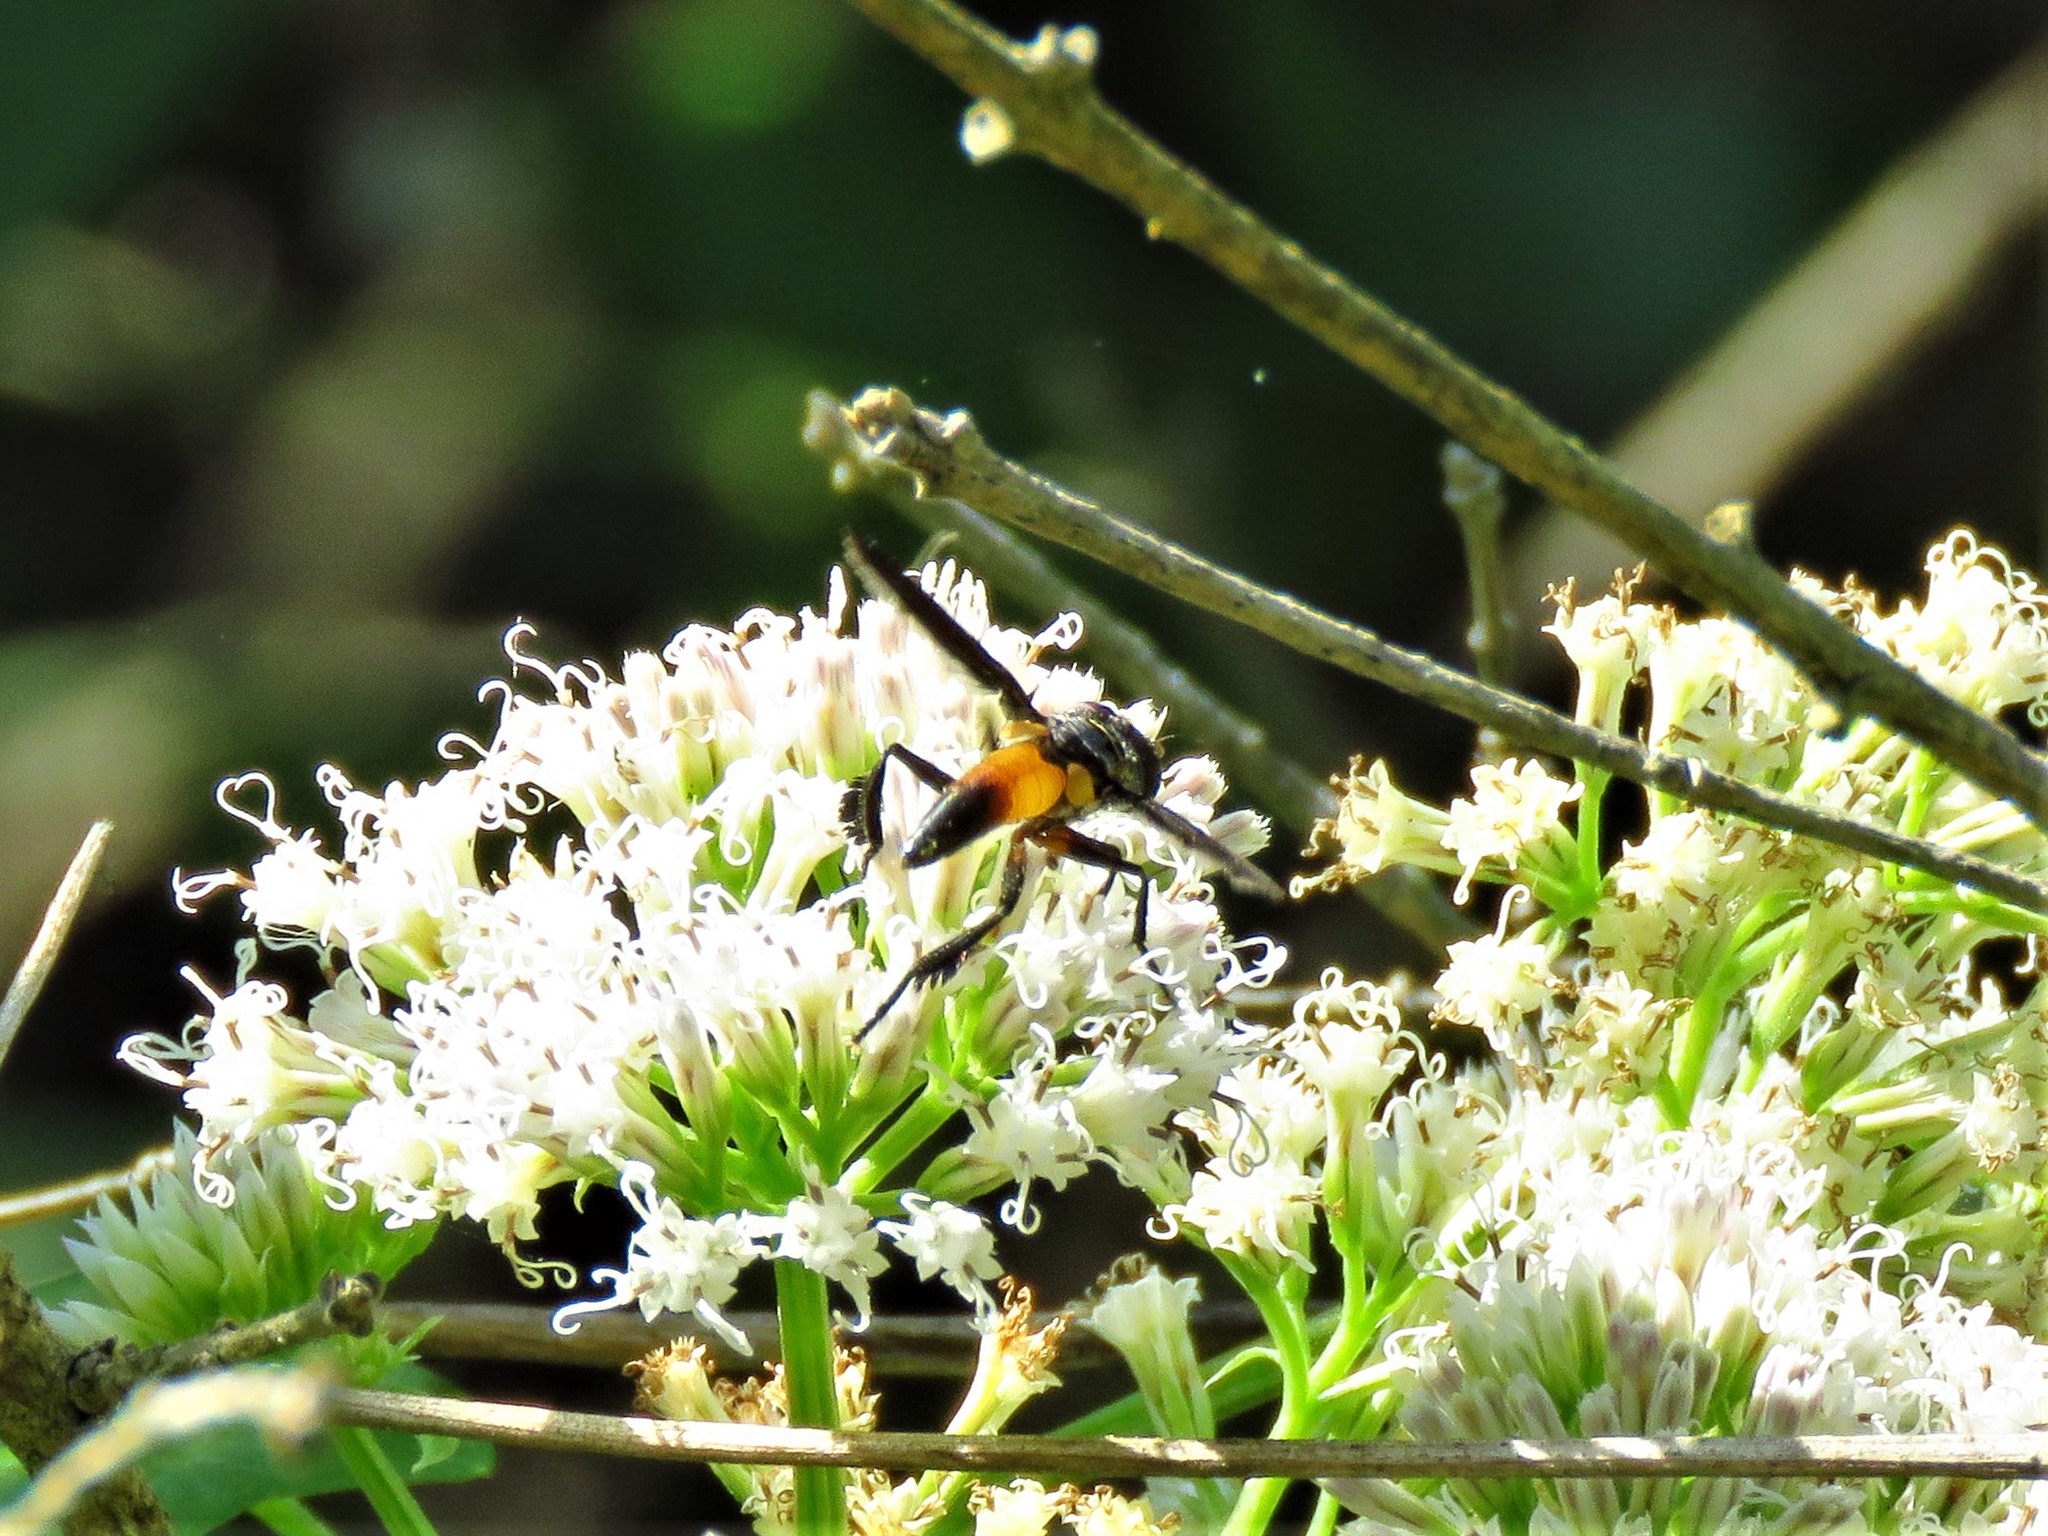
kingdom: Animalia
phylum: Arthropoda
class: Insecta
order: Diptera
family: Tachinidae
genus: Trichopoda
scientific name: Trichopoda pennipes
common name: Tachinid fly
